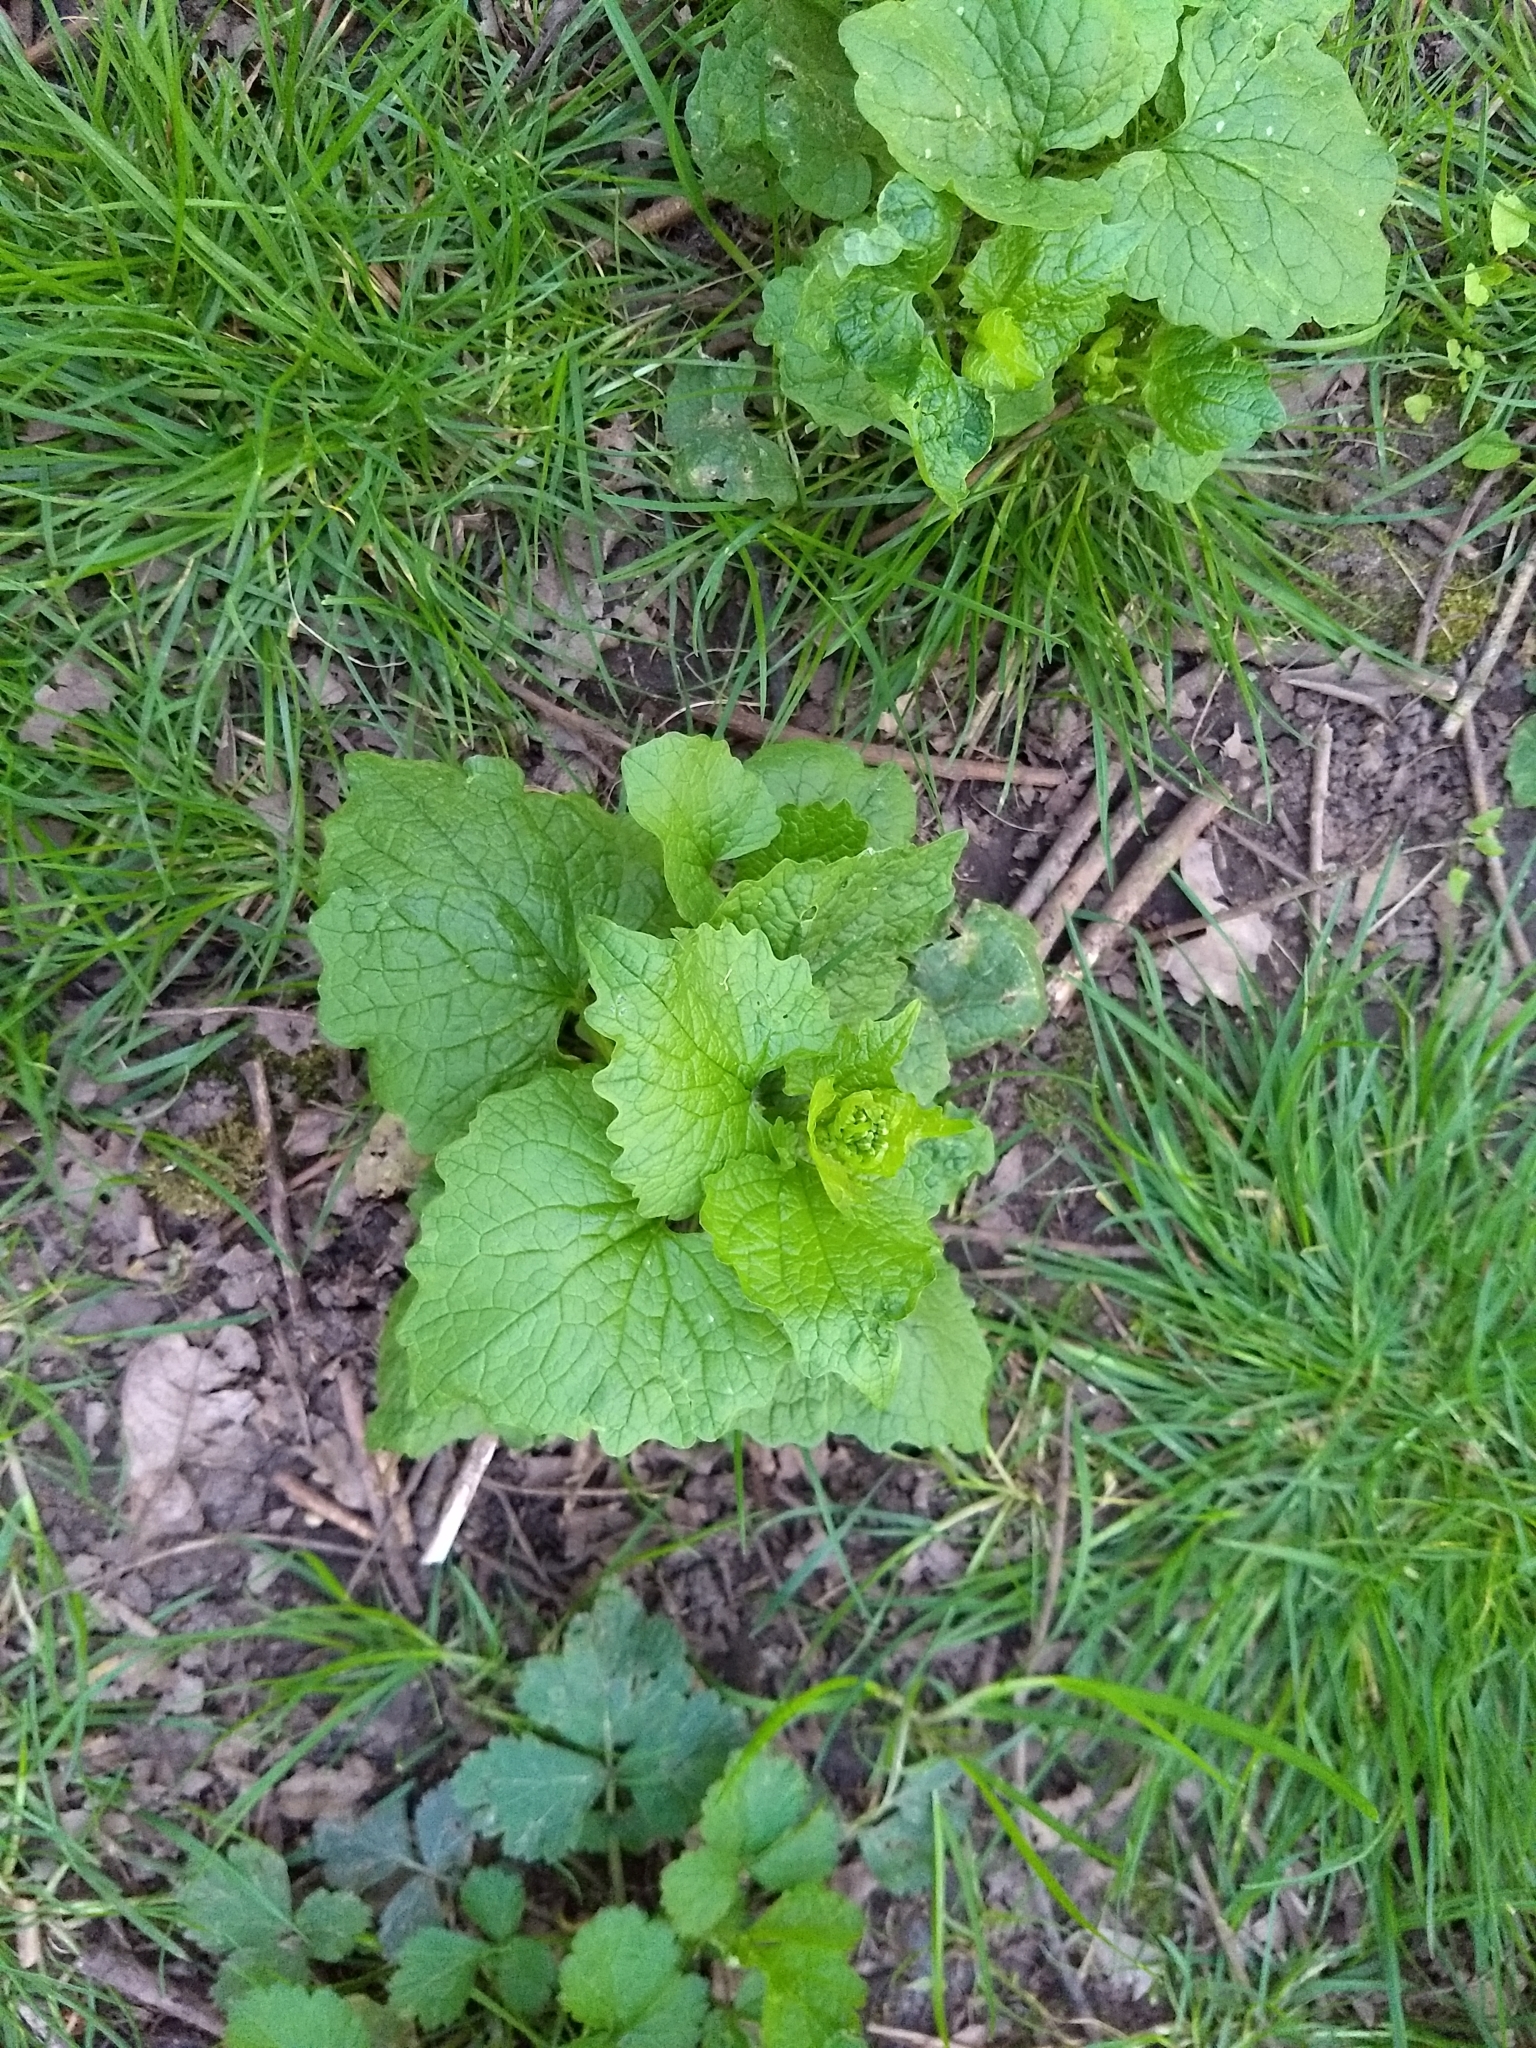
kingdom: Plantae
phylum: Tracheophyta
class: Magnoliopsida
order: Brassicales
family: Brassicaceae
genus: Alliaria
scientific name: Alliaria petiolata
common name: Garlic mustard
